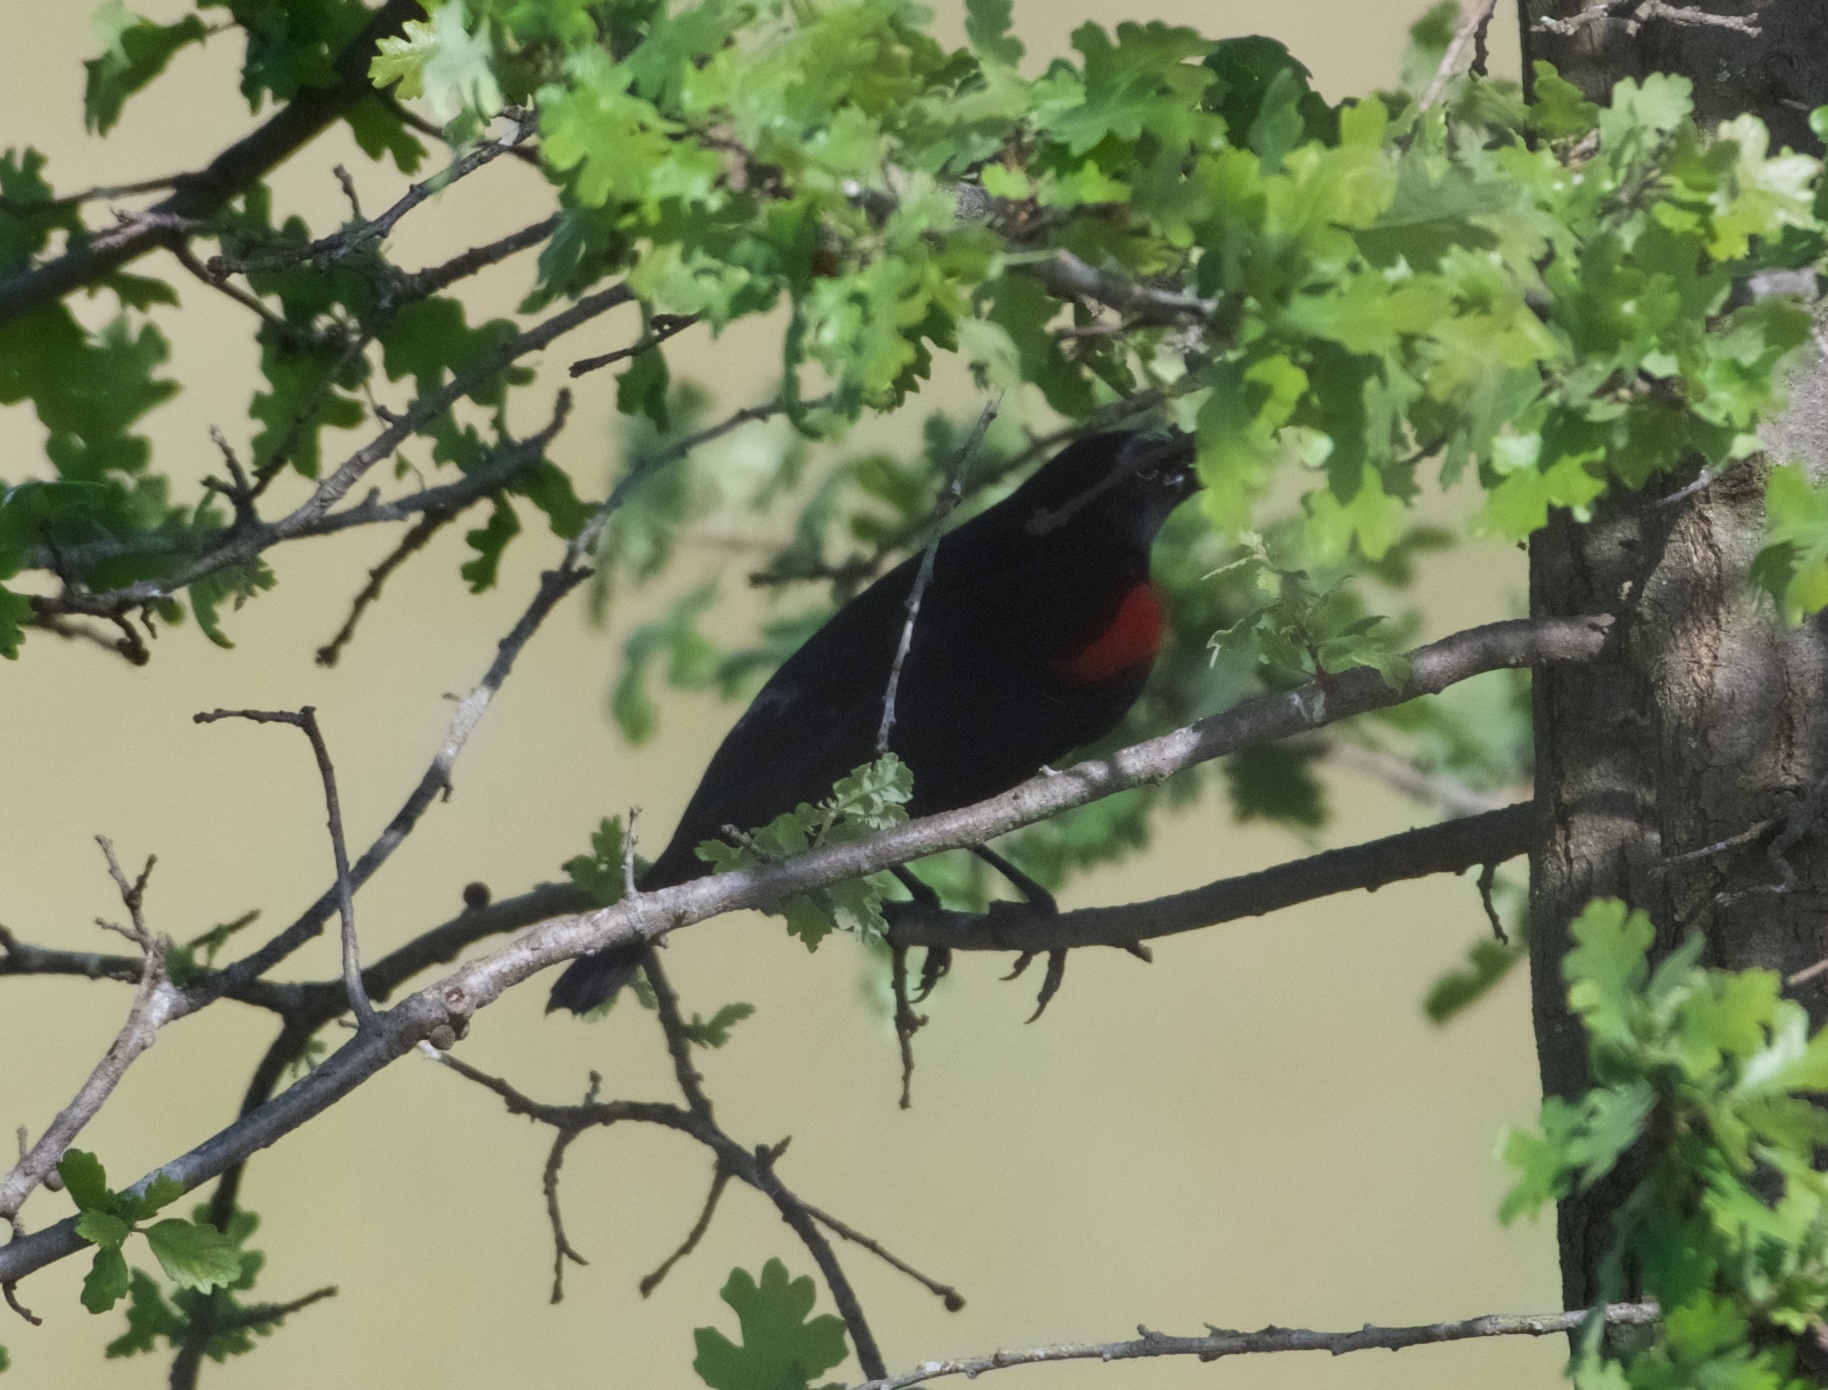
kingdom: Animalia
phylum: Chordata
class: Aves
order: Passeriformes
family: Icteridae
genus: Agelaius
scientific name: Agelaius phoeniceus
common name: Red-winged blackbird
